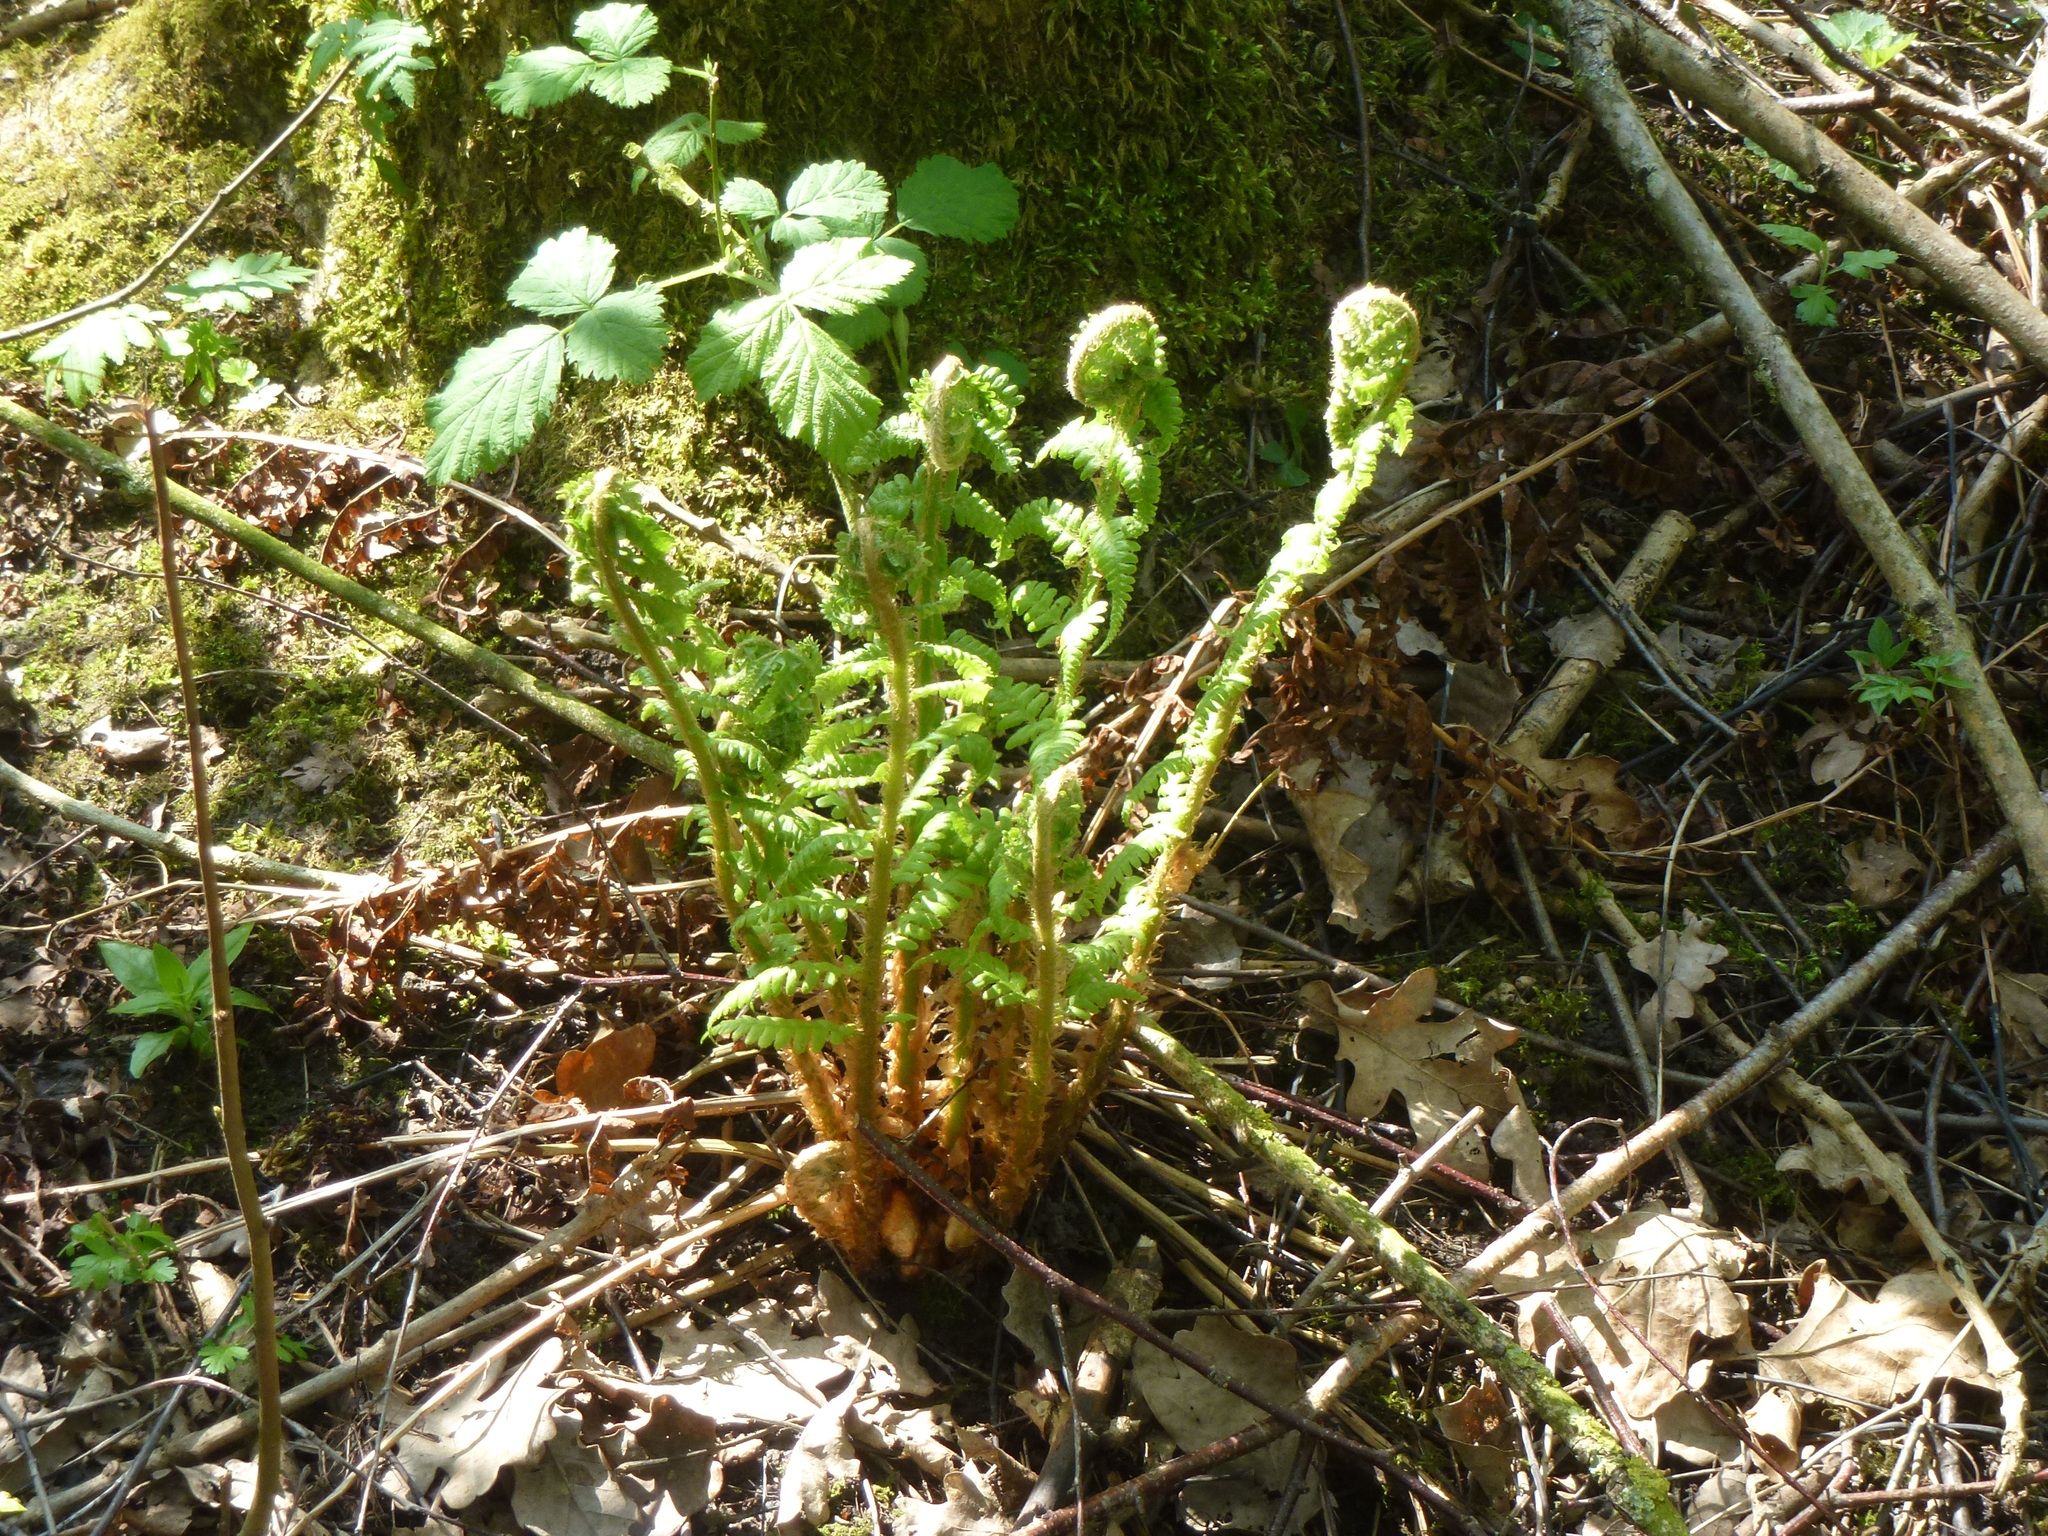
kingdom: Plantae
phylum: Tracheophyta
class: Polypodiopsida
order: Polypodiales
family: Dryopteridaceae
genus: Dryopteris
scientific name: Dryopteris filix-mas
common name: Male fern
